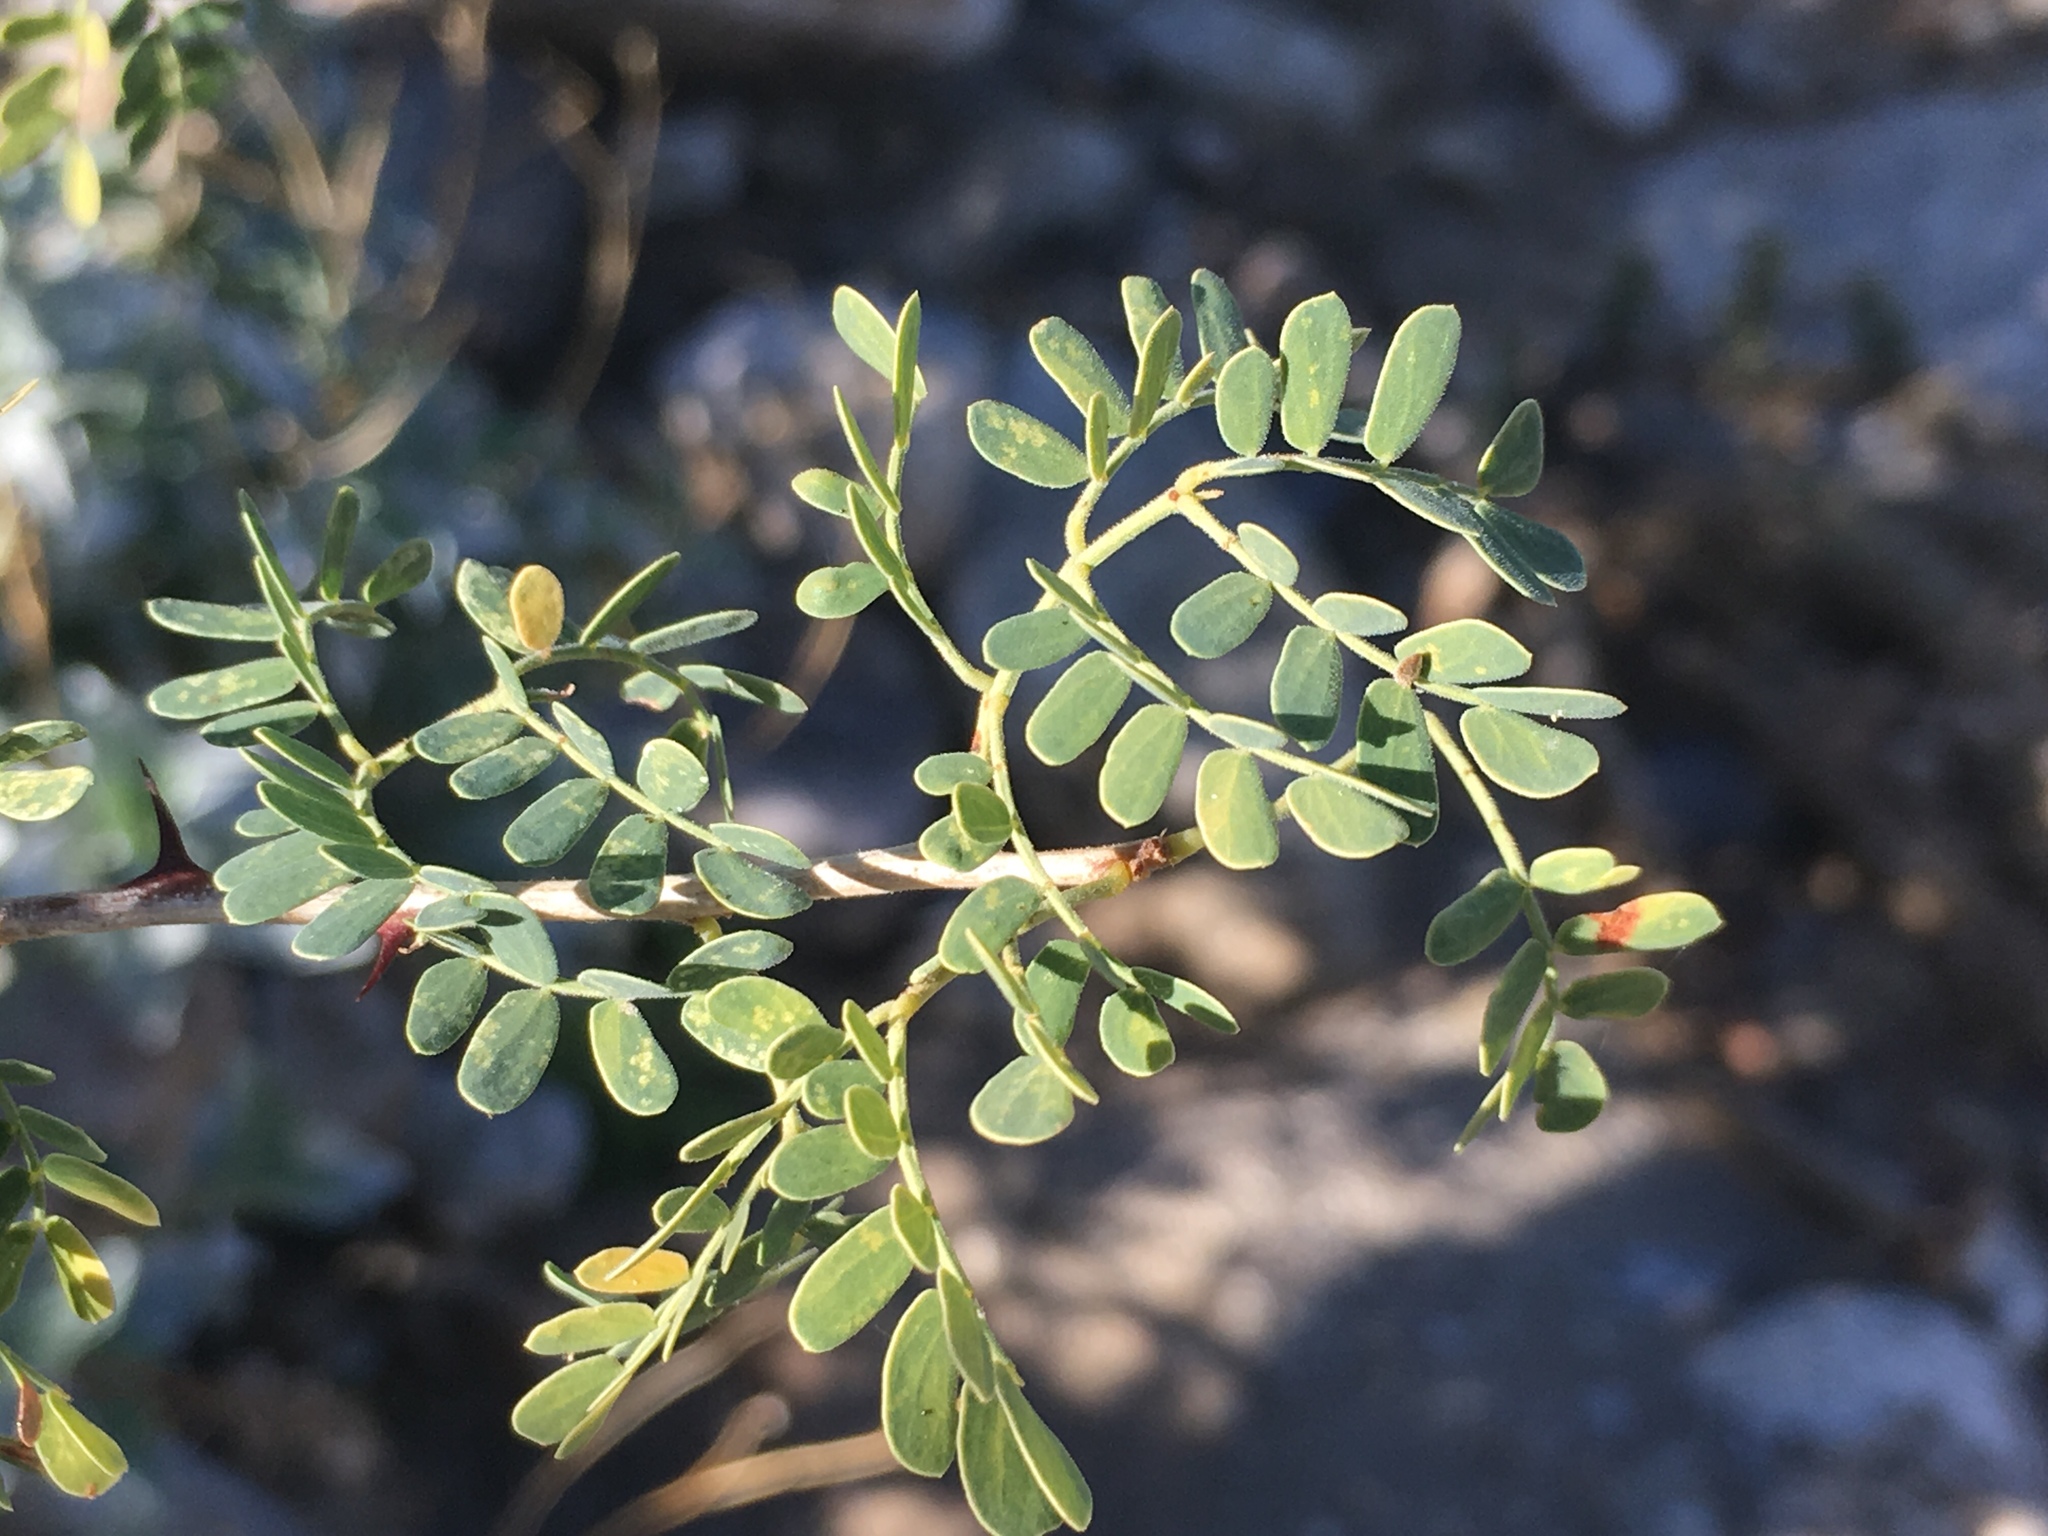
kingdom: Plantae
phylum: Tracheophyta
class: Magnoliopsida
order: Fabales
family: Fabaceae
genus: Senegalia
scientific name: Senegalia greggii
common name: Texas-mimosa
